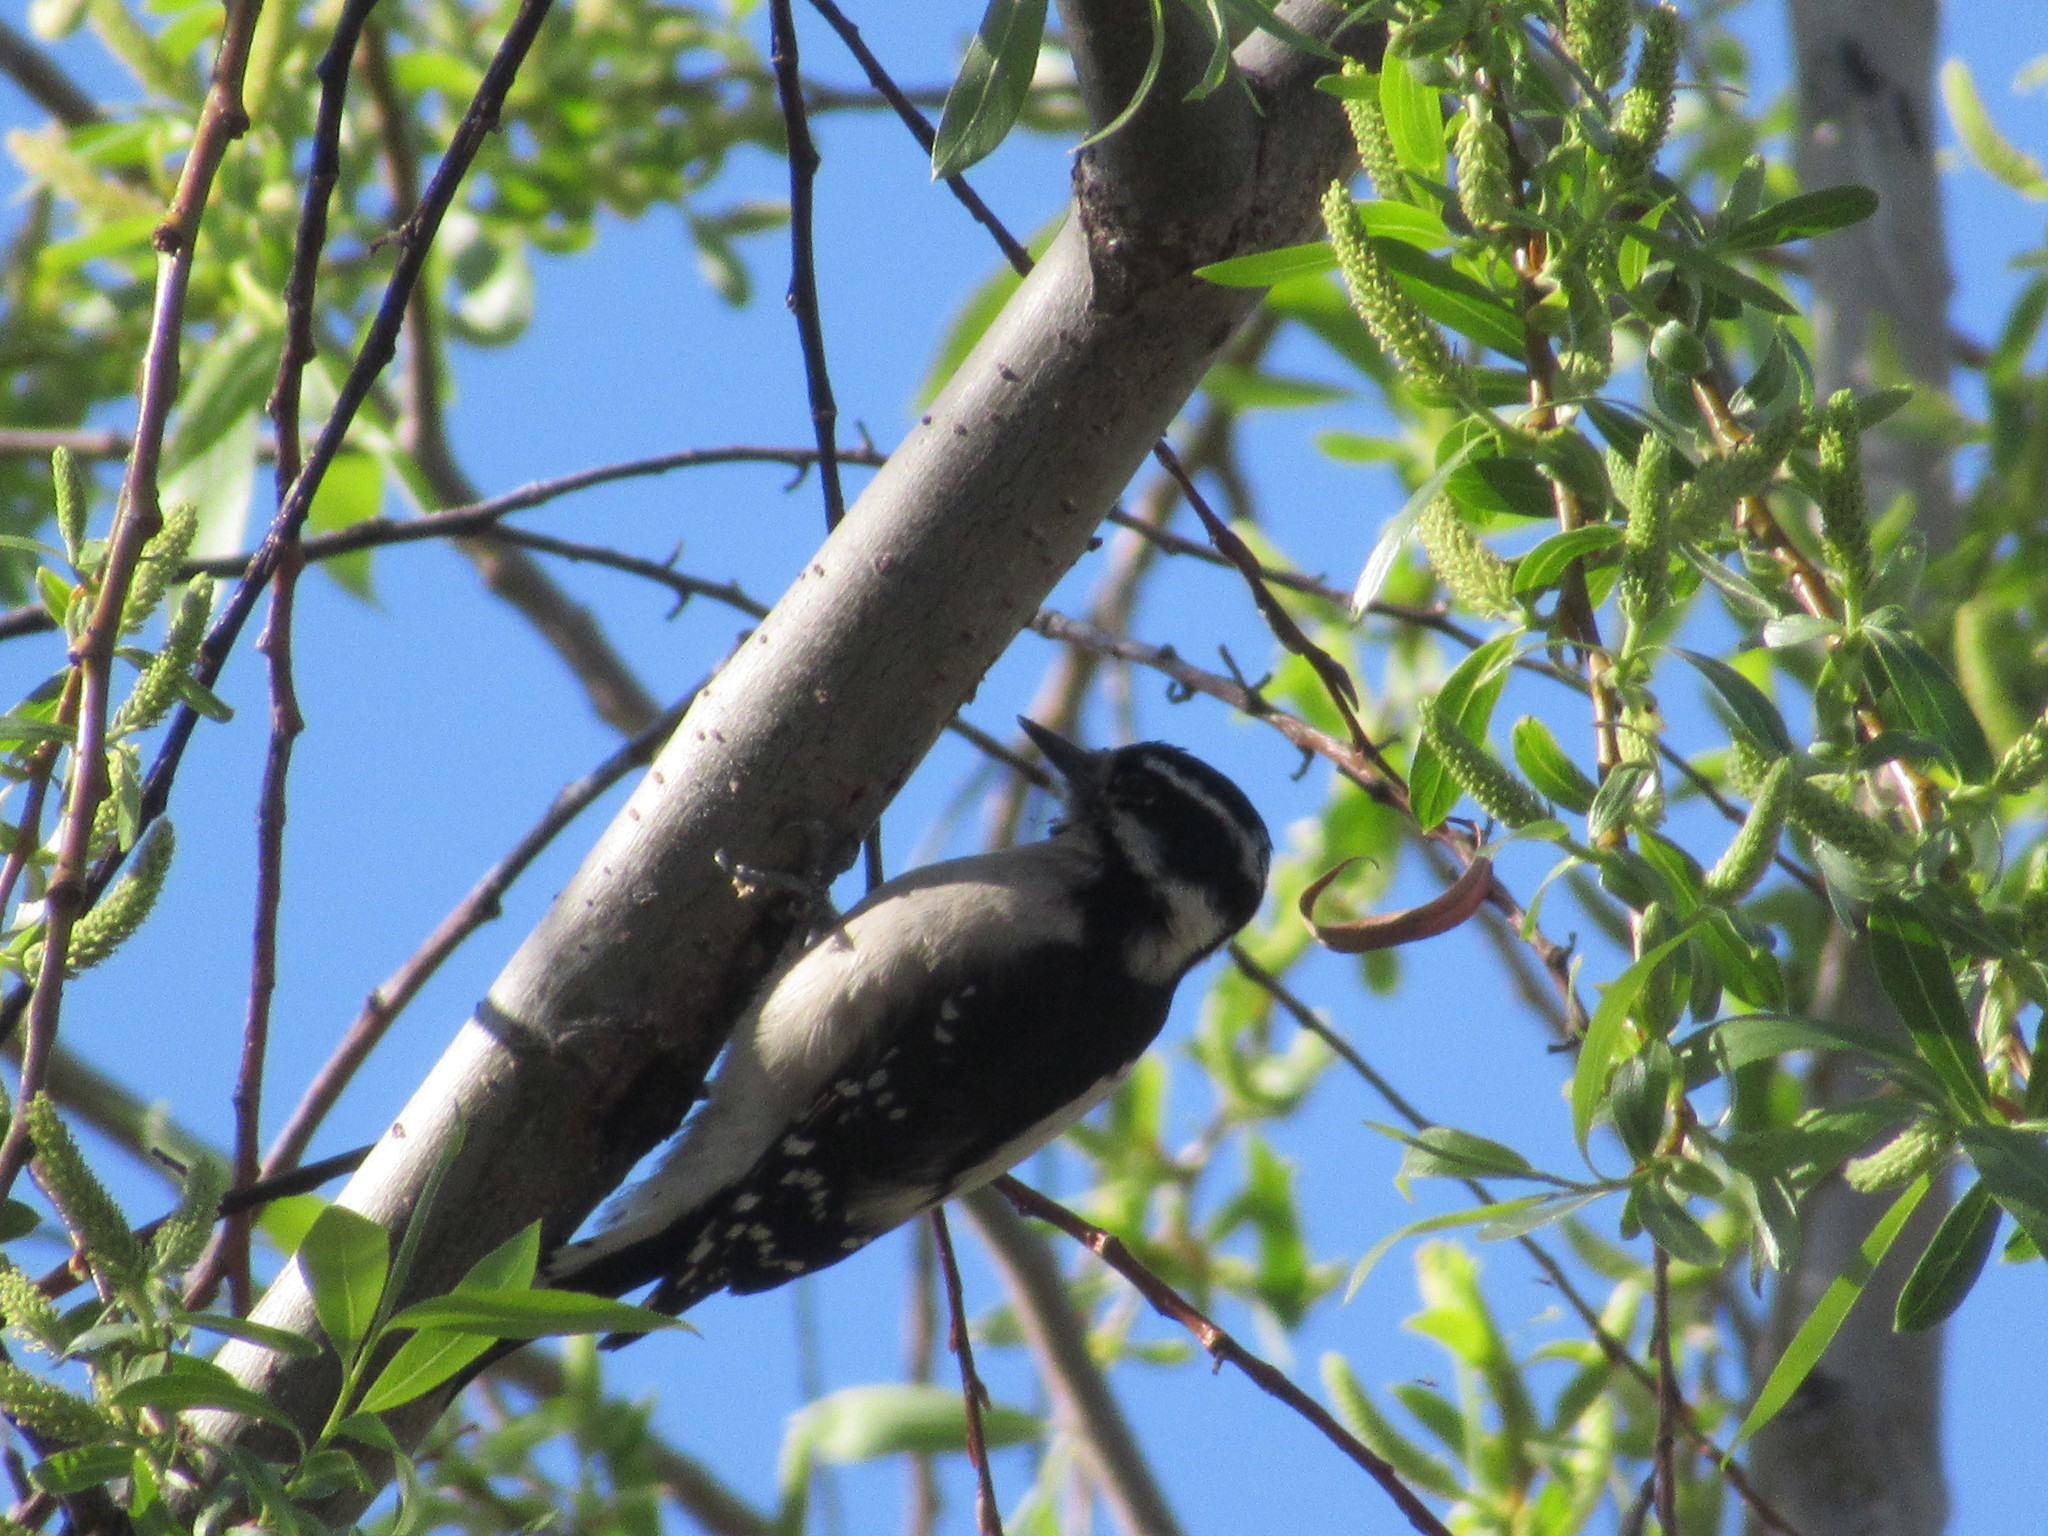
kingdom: Animalia
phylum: Chordata
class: Aves
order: Piciformes
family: Picidae
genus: Dryobates
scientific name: Dryobates pubescens
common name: Downy woodpecker
